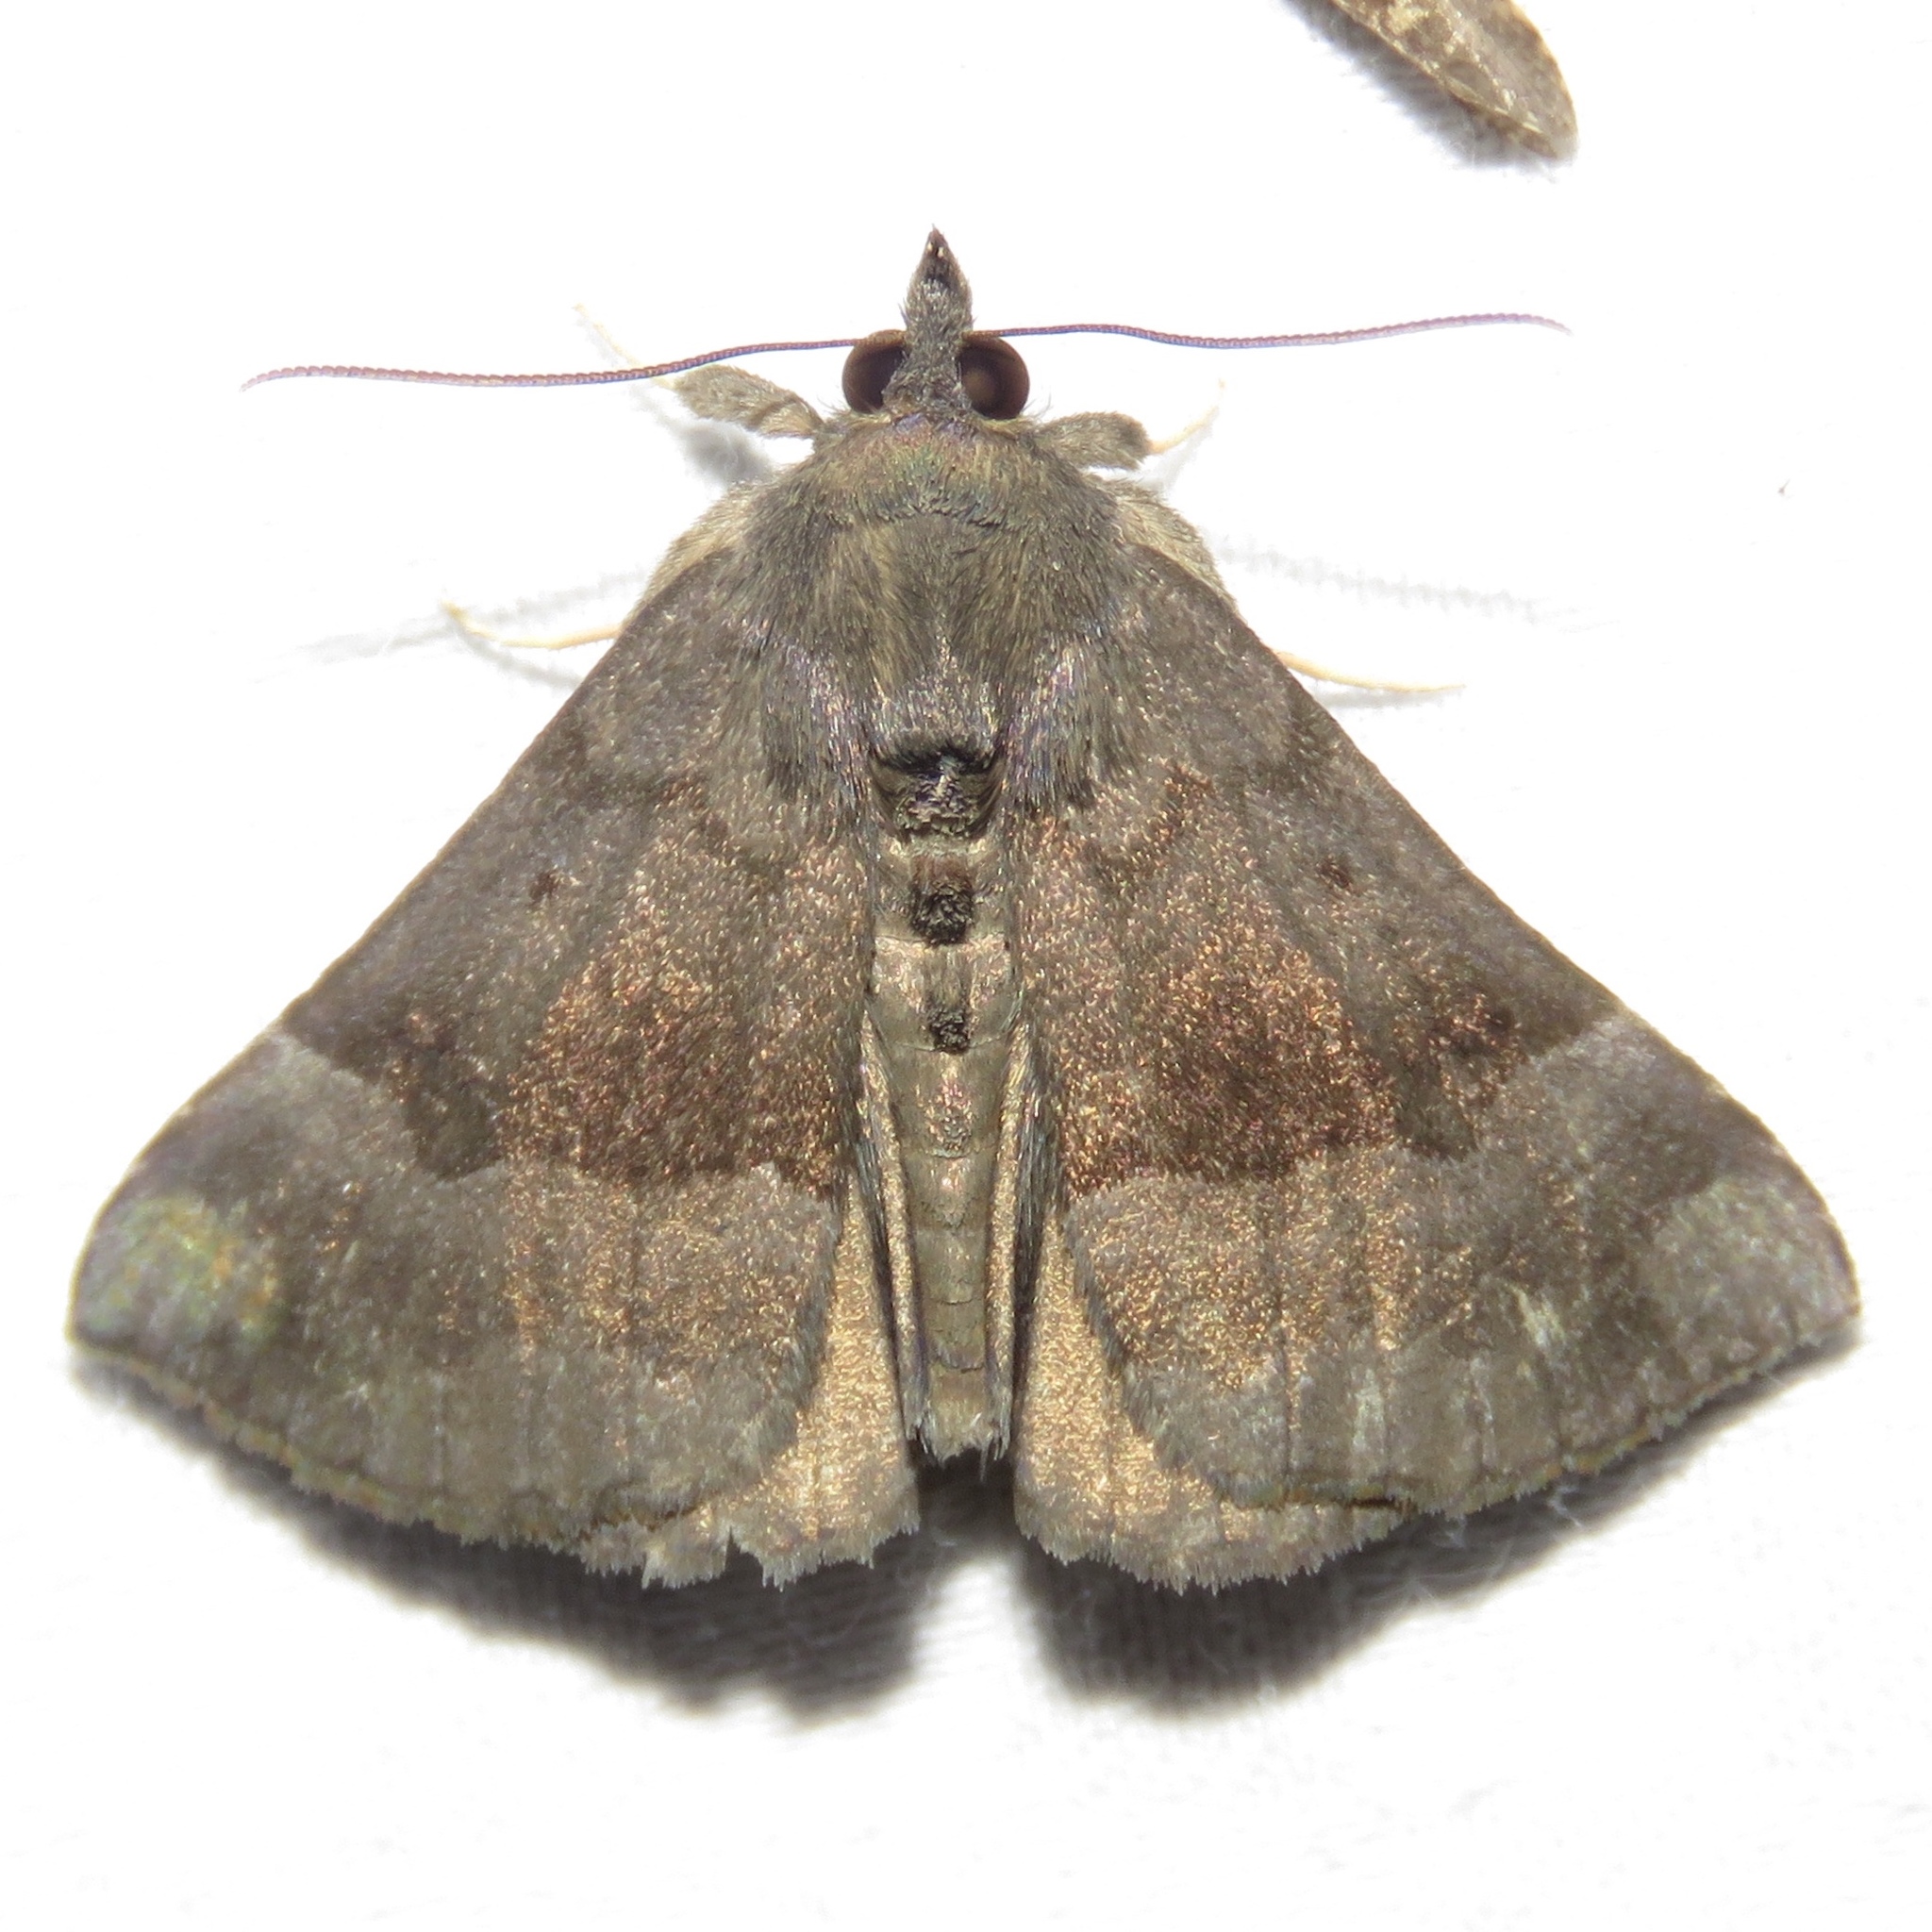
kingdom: Animalia
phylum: Arthropoda
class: Insecta
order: Lepidoptera
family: Erebidae
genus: Hypena
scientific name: Hypena madefactalis
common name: Gray-edged snout
